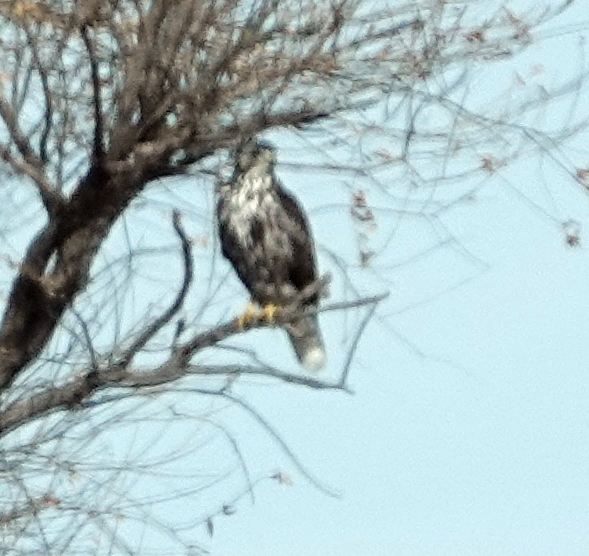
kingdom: Animalia
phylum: Chordata
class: Aves
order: Accipitriformes
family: Accipitridae
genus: Buteo
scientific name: Buteo jamaicensis
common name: Red-tailed hawk
